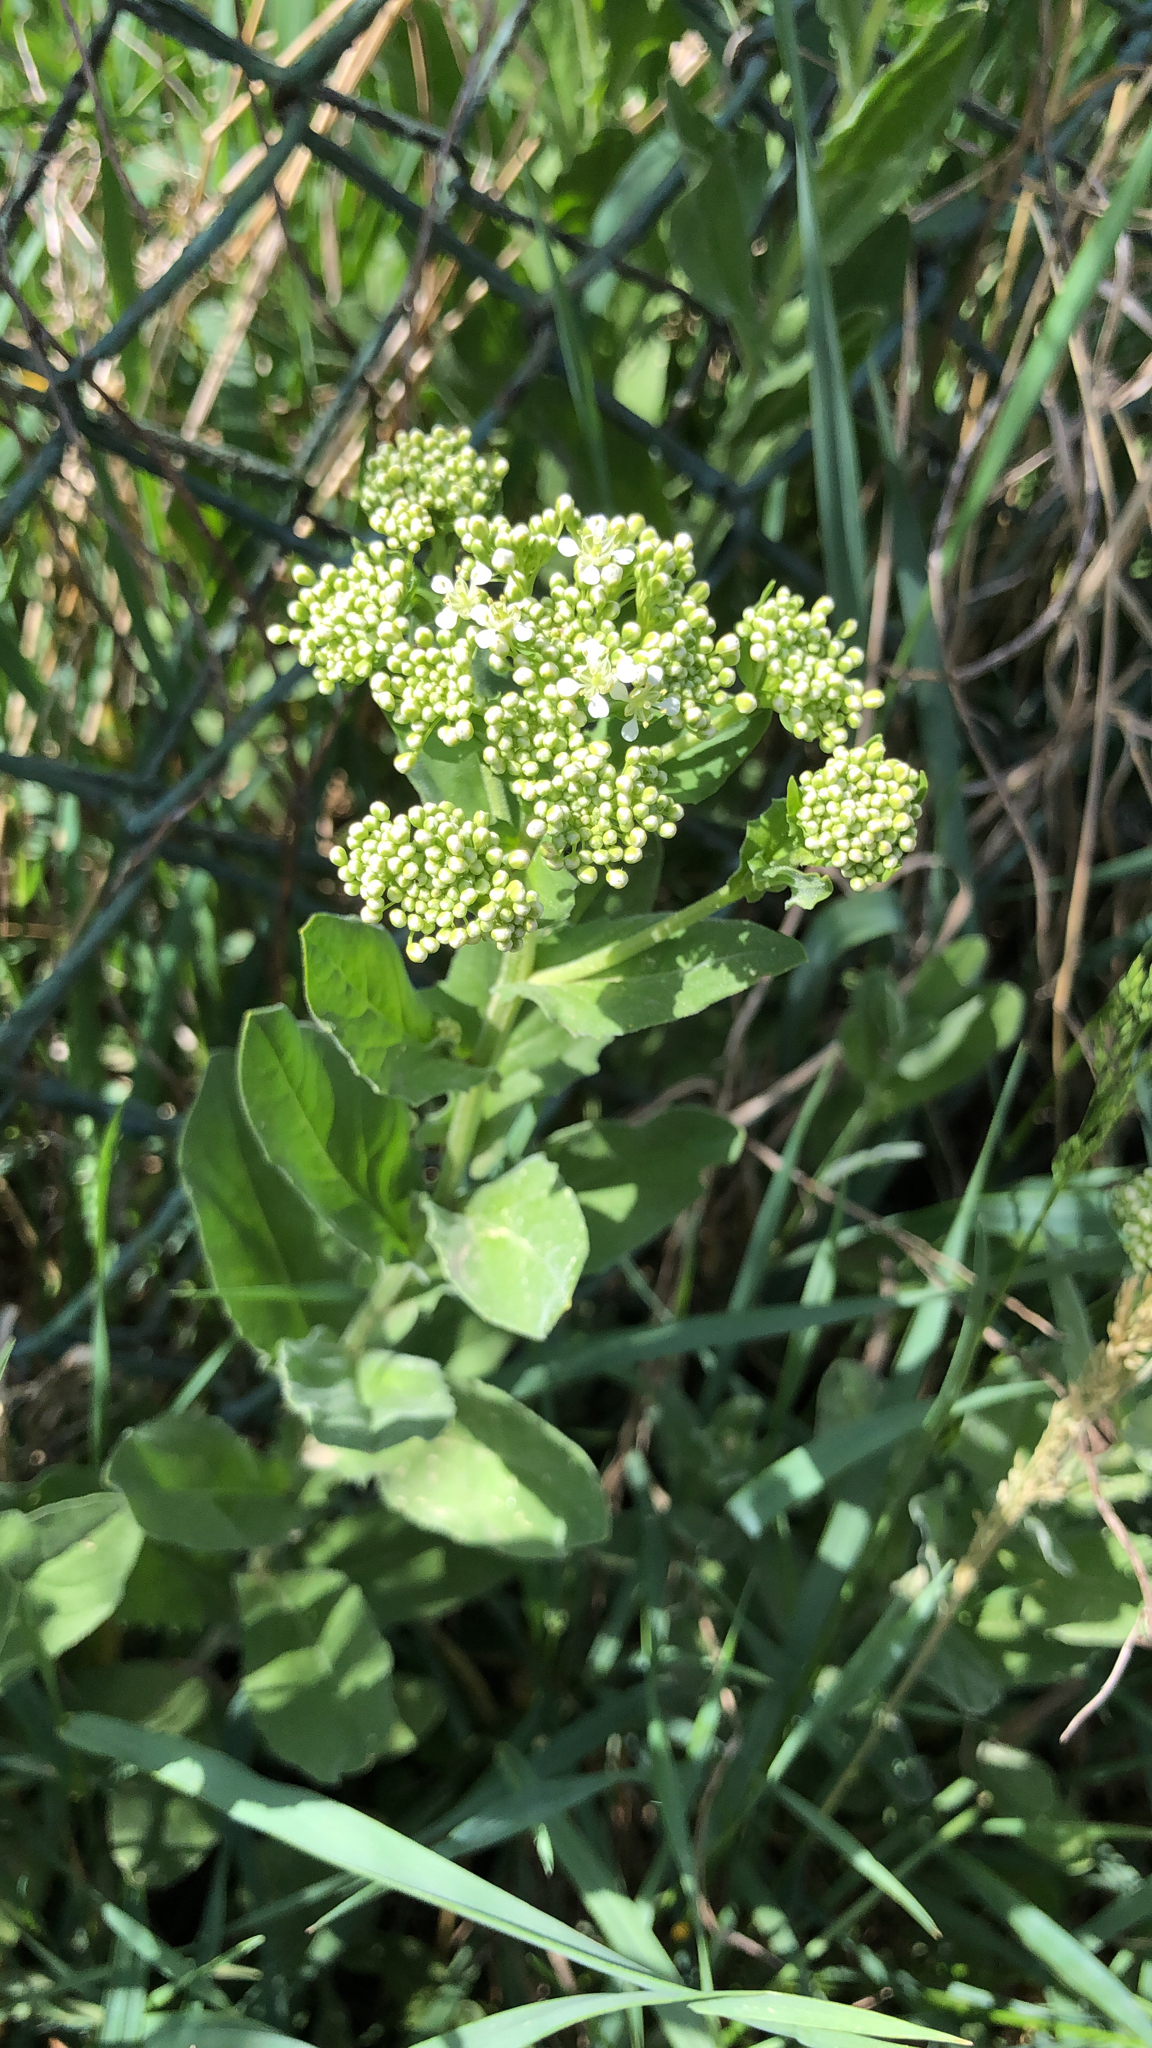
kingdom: Plantae
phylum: Tracheophyta
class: Magnoliopsida
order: Brassicales
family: Brassicaceae
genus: Lepidium
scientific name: Lepidium draba
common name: Hoary cress
